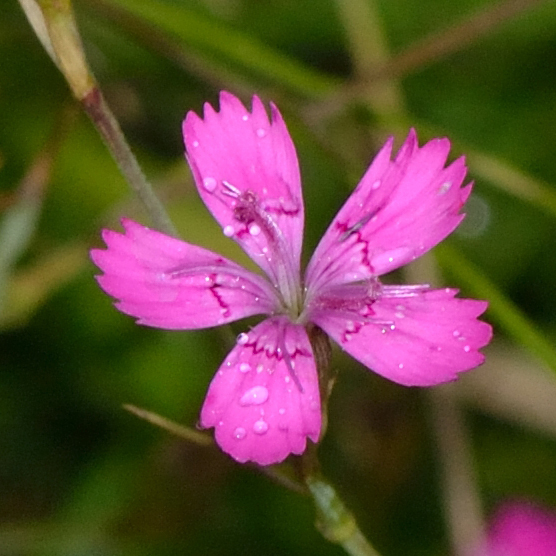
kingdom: Plantae
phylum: Tracheophyta
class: Magnoliopsida
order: Caryophyllales
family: Caryophyllaceae
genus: Dianthus
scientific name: Dianthus deltoides
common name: Maiden pink
